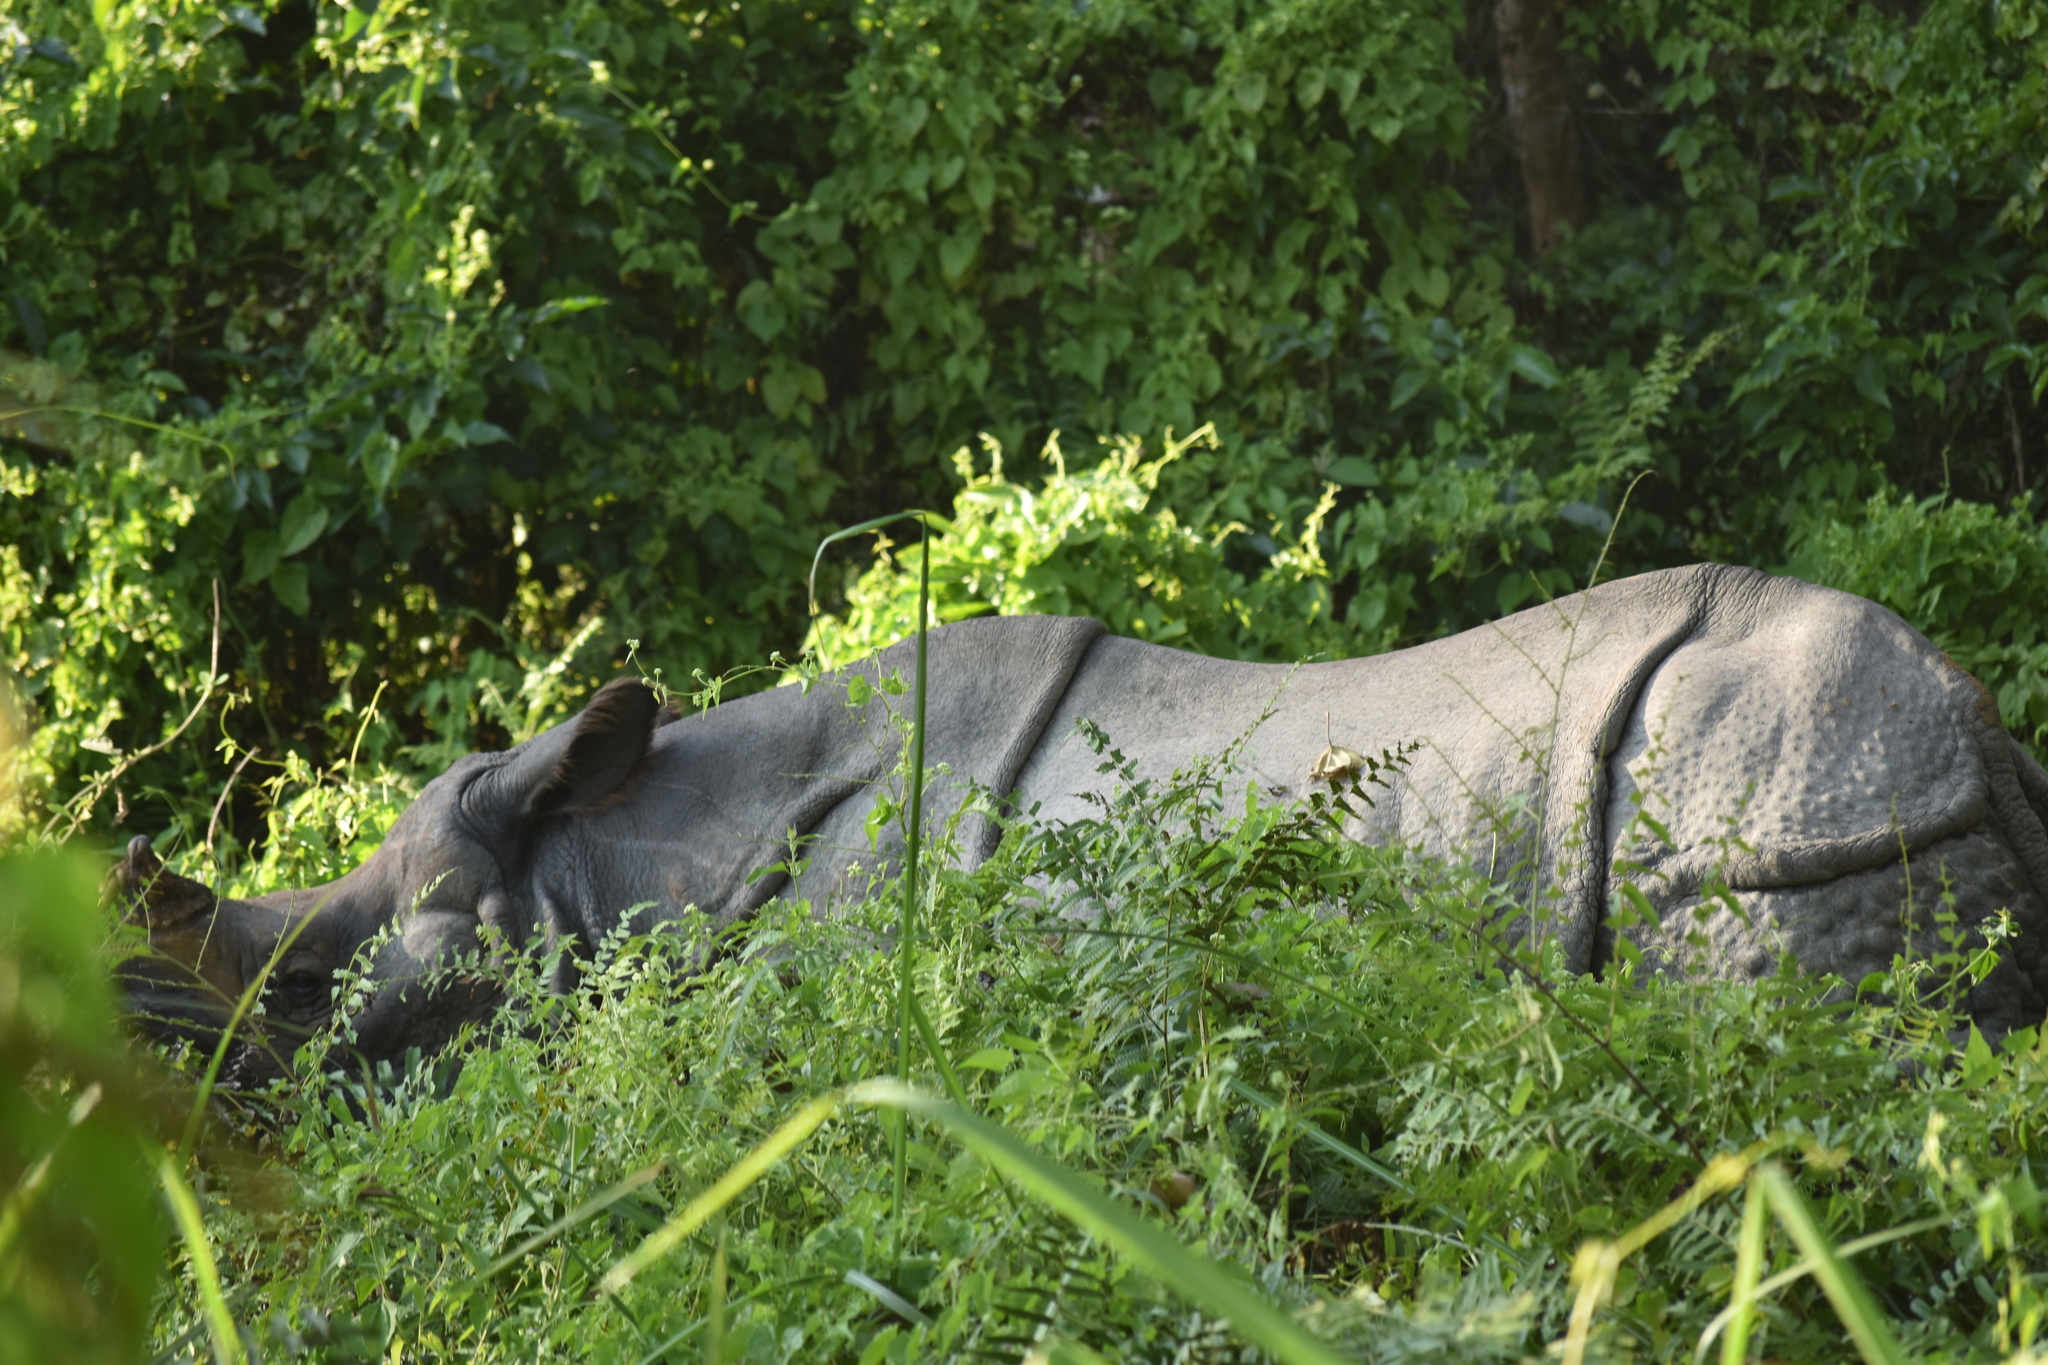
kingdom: Animalia
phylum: Chordata
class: Mammalia
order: Perissodactyla
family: Rhinocerotidae
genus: Rhinoceros
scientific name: Rhinoceros unicornis
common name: Indian rhinoceros
